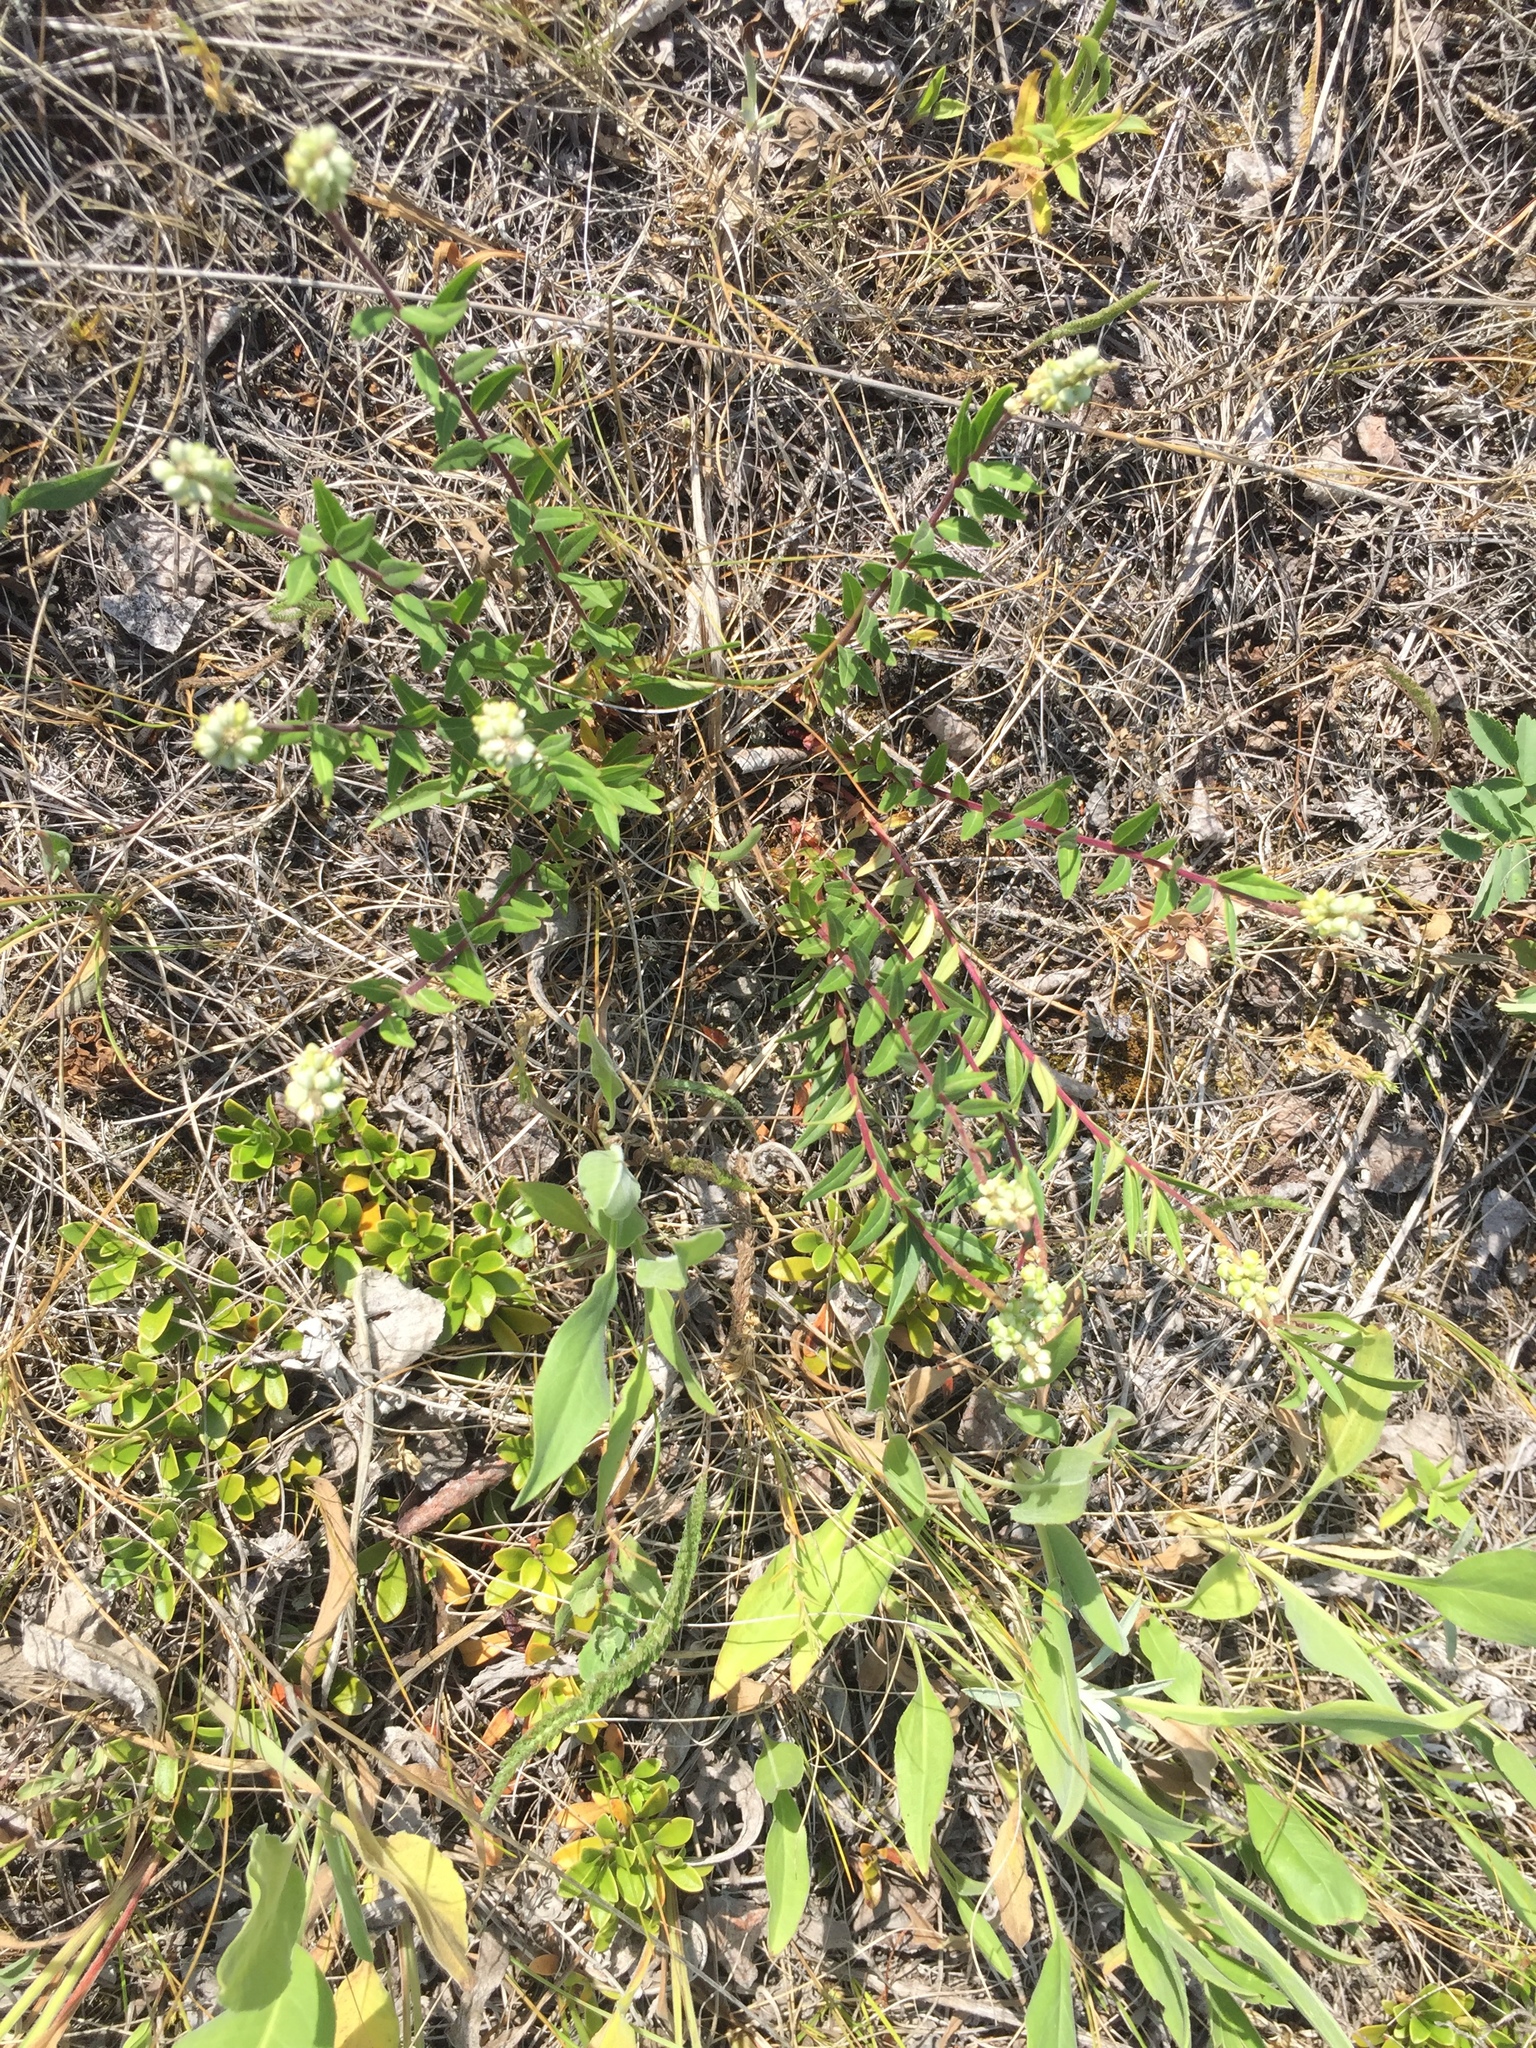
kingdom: Plantae
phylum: Tracheophyta
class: Magnoliopsida
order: Fabales
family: Polygalaceae
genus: Polygala
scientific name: Polygala senega
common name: Seneca snakeroot
